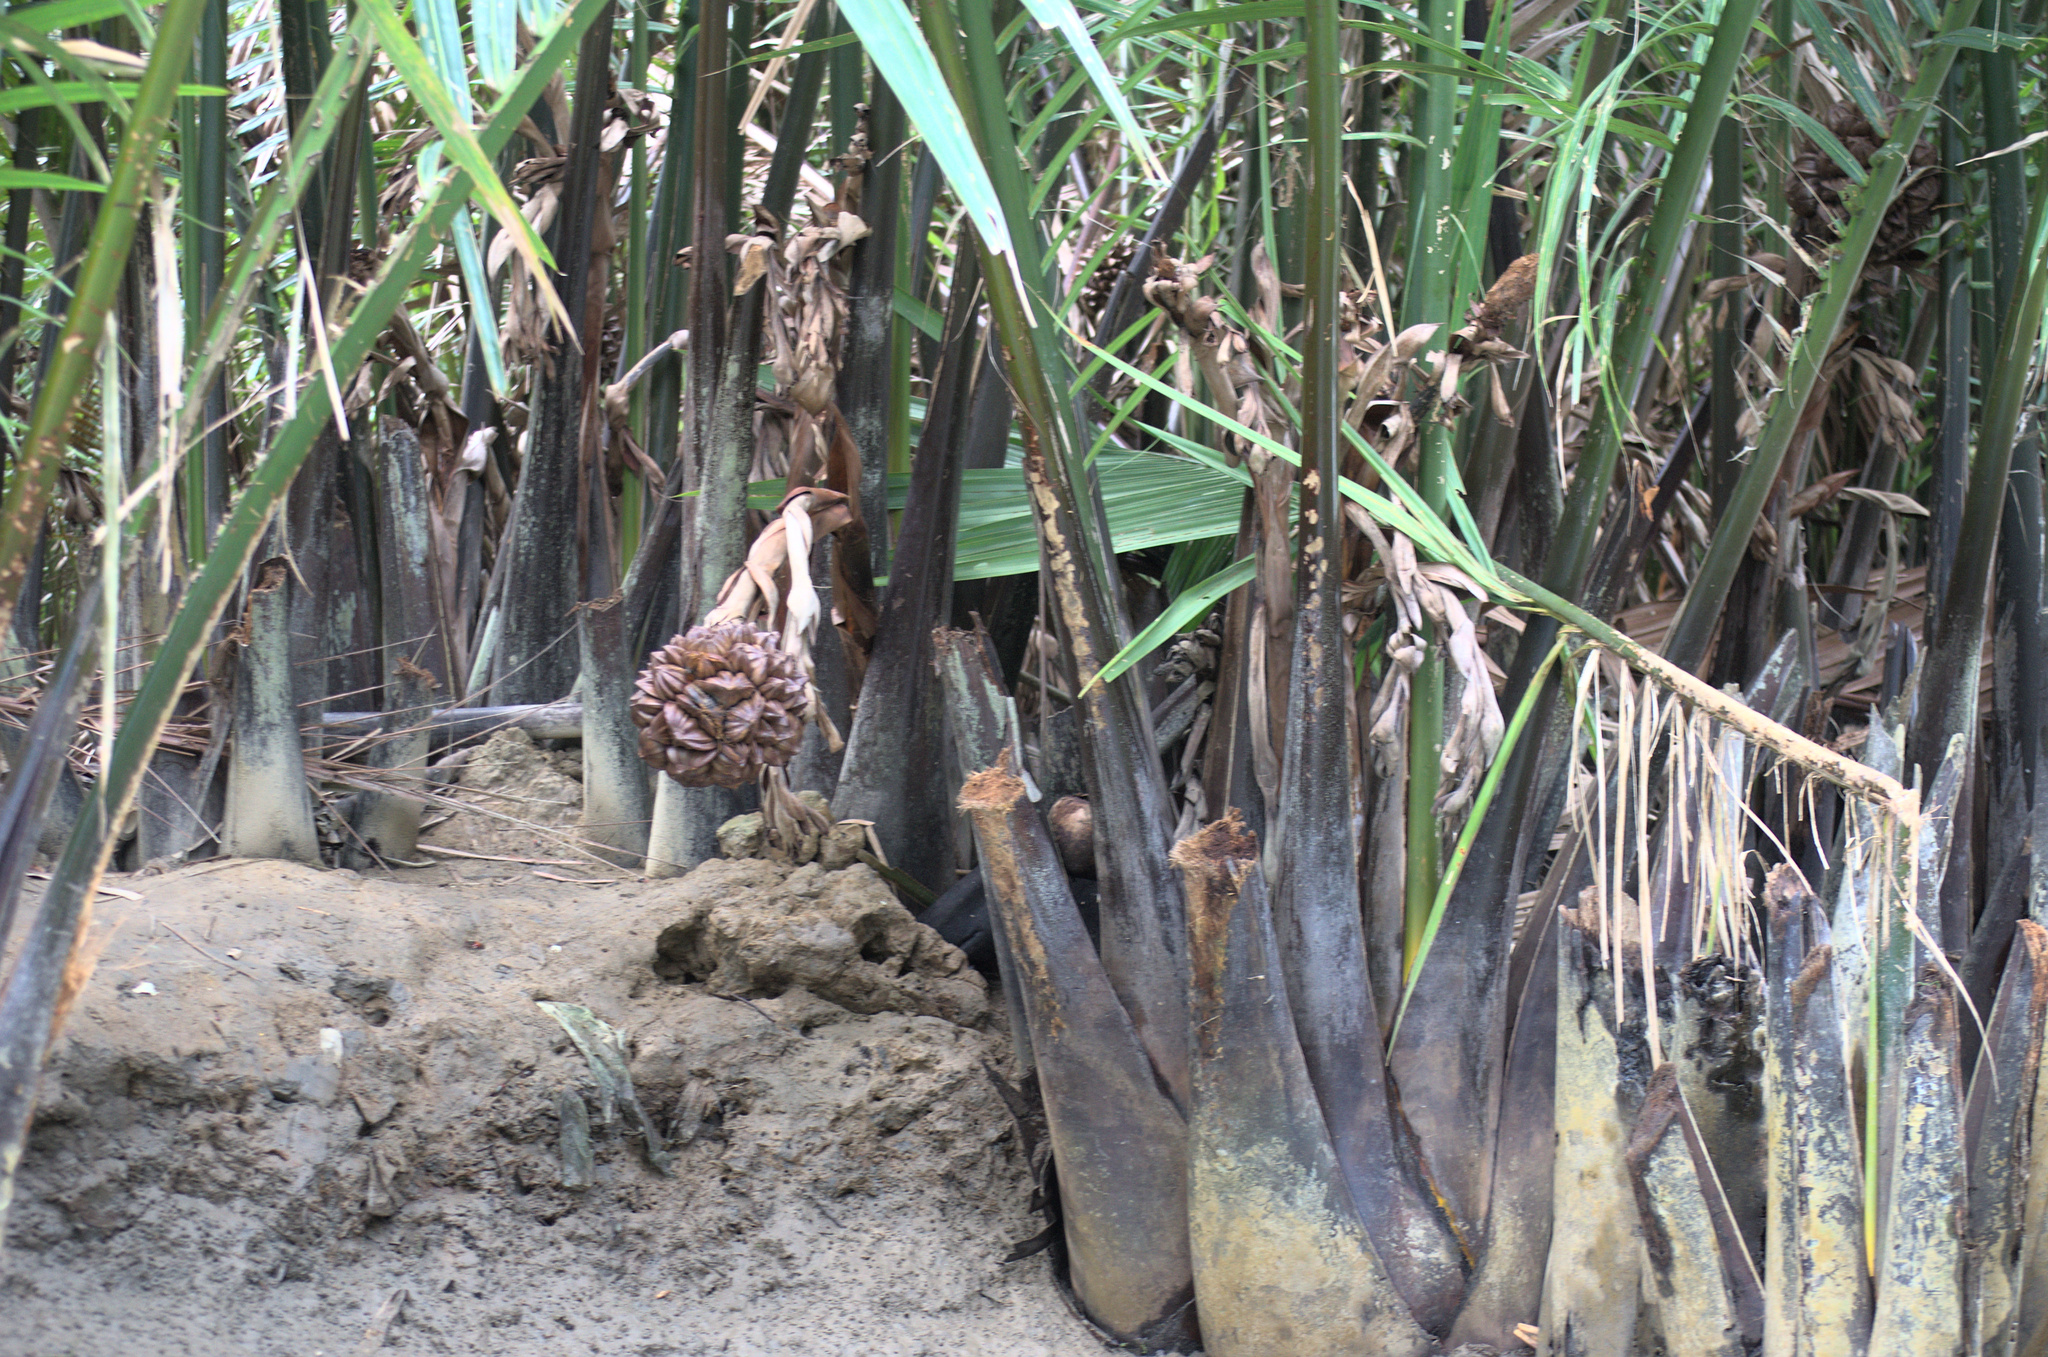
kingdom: Plantae
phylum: Tracheophyta
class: Liliopsida
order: Arecales
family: Arecaceae
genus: Nypa
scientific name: Nypa fruticans
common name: Mangrove palm
